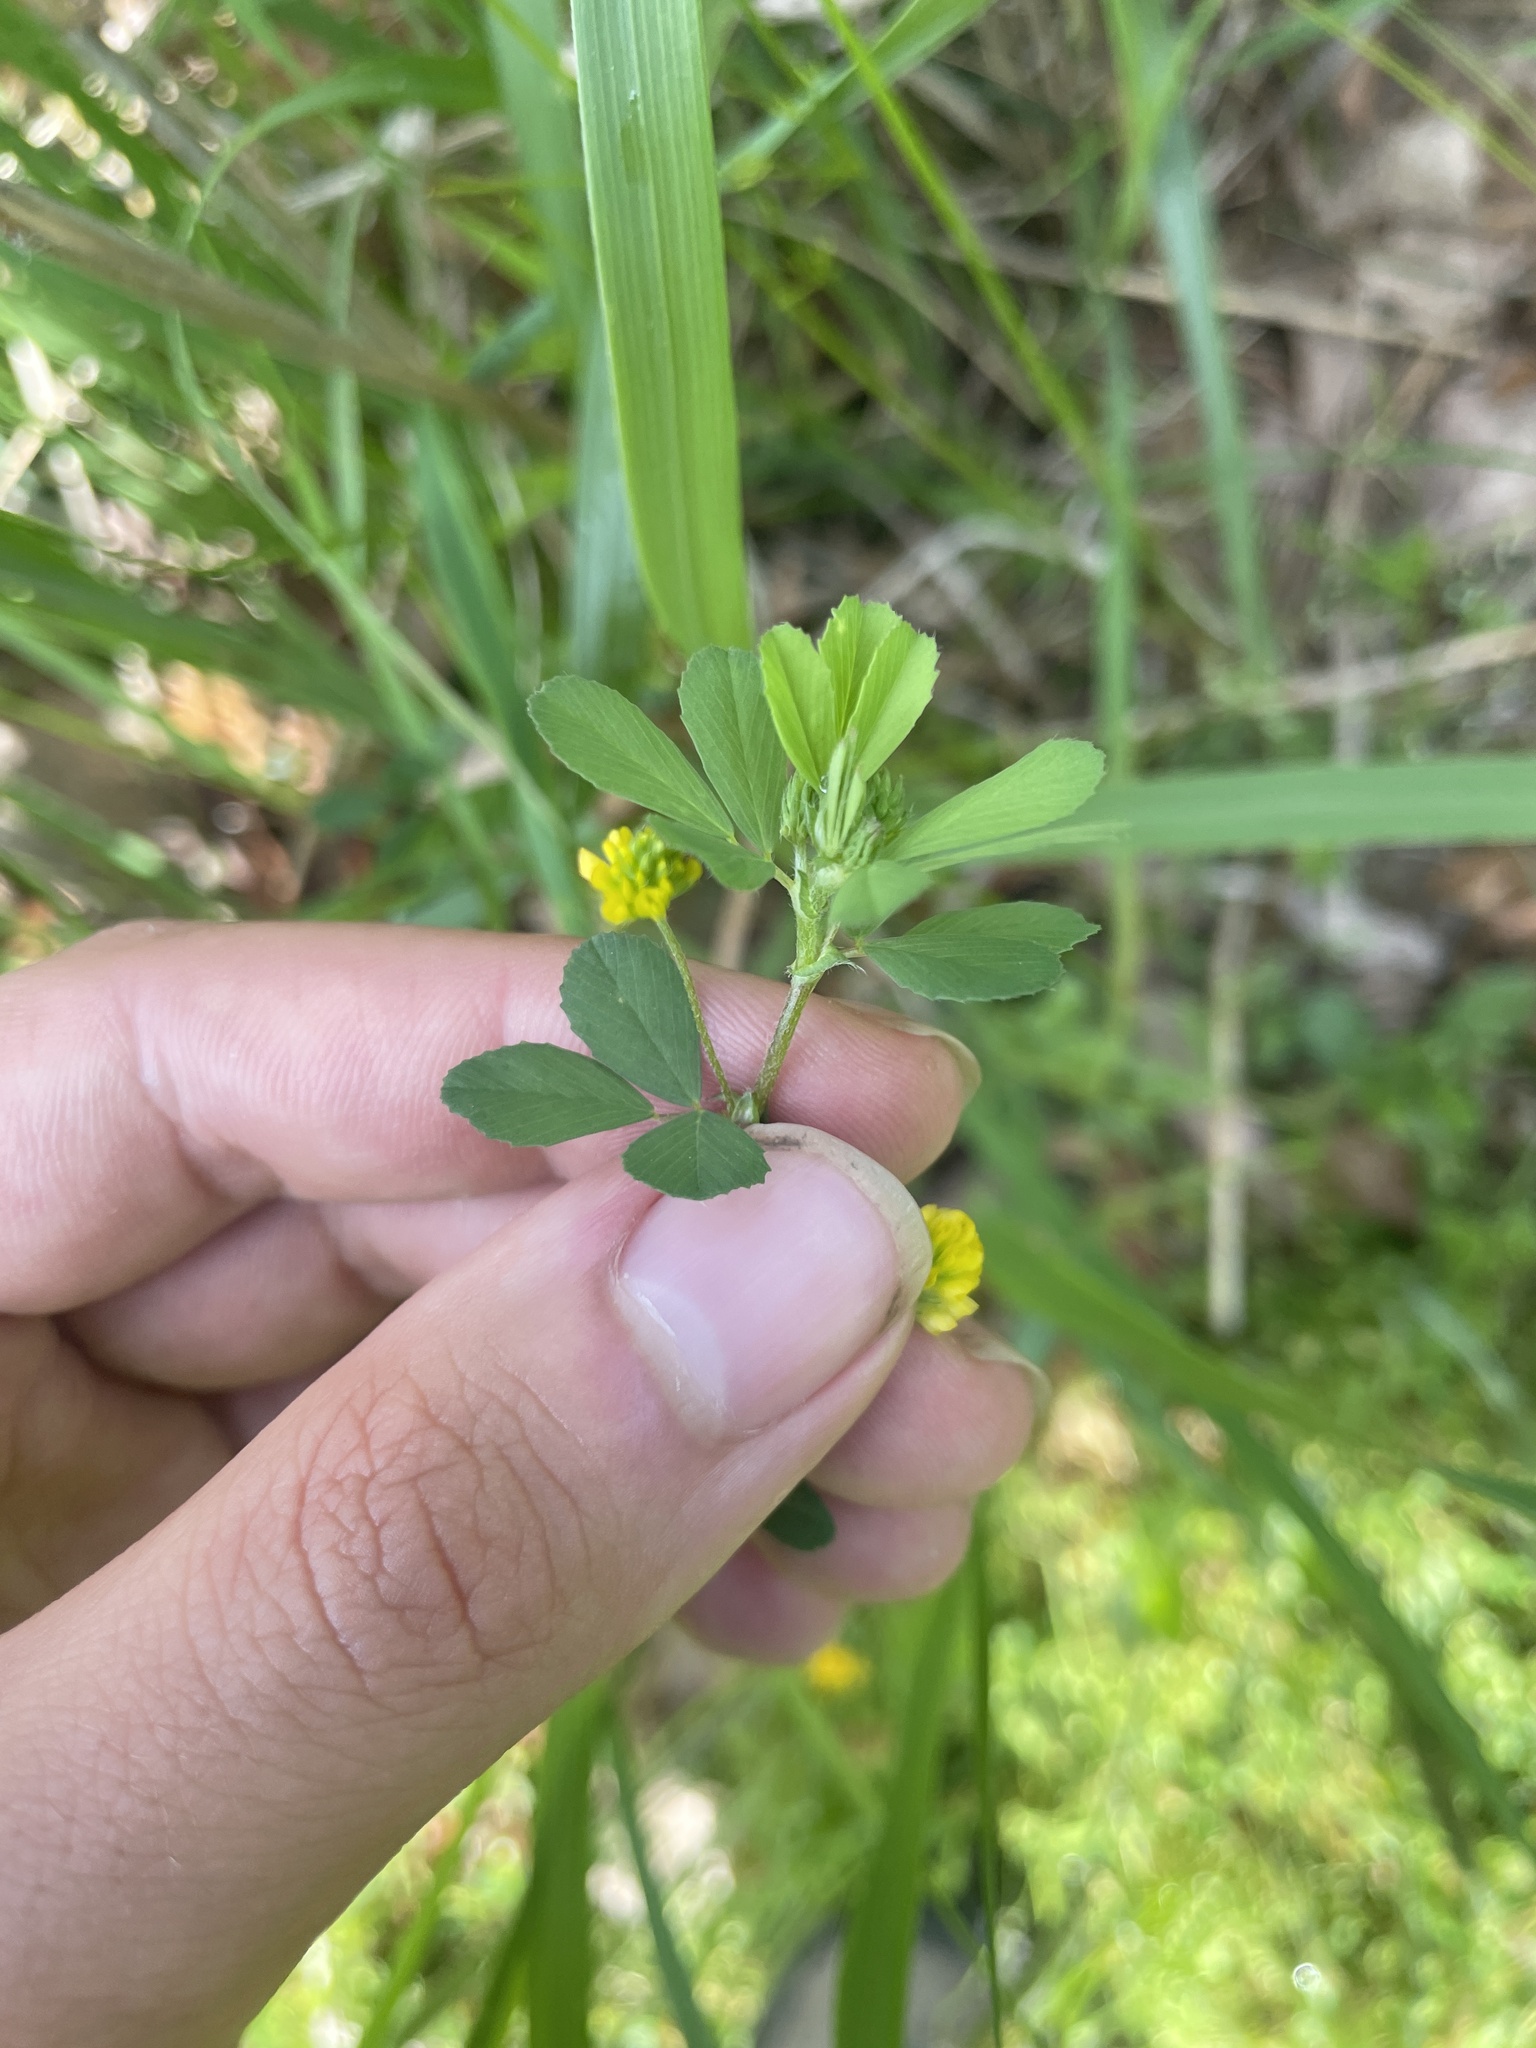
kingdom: Plantae
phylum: Tracheophyta
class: Magnoliopsida
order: Fabales
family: Fabaceae
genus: Trifolium
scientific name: Trifolium dubium
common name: Suckling clover
